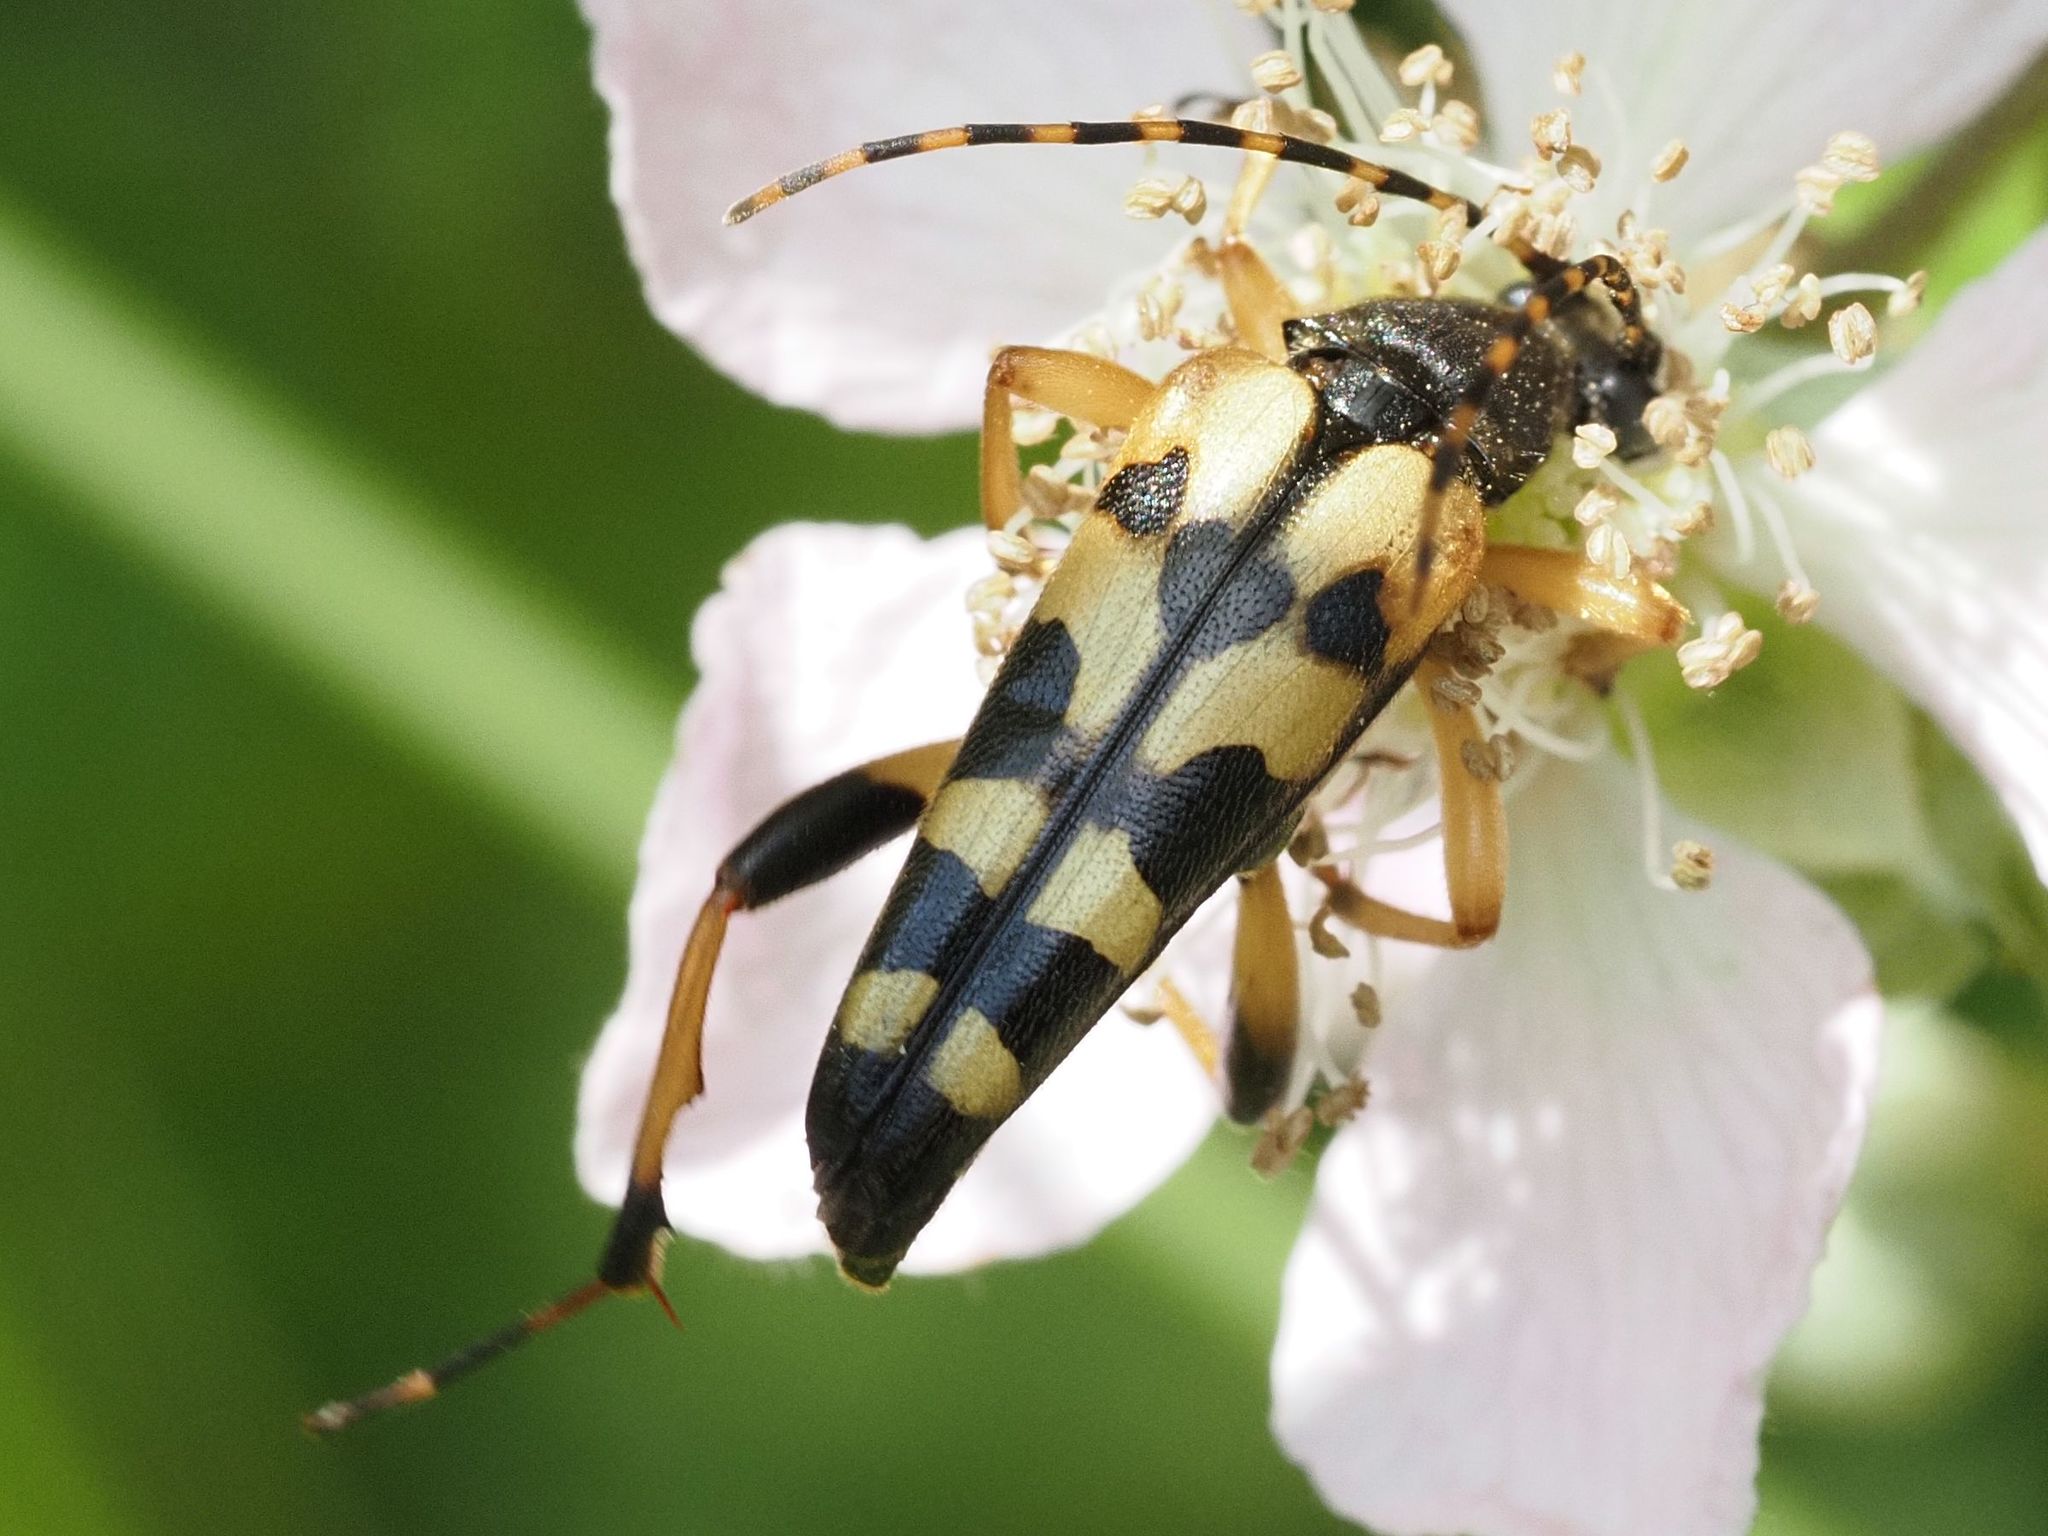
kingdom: Animalia
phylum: Arthropoda
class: Insecta
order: Coleoptera
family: Cerambycidae
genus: Rutpela
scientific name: Rutpela maculata
